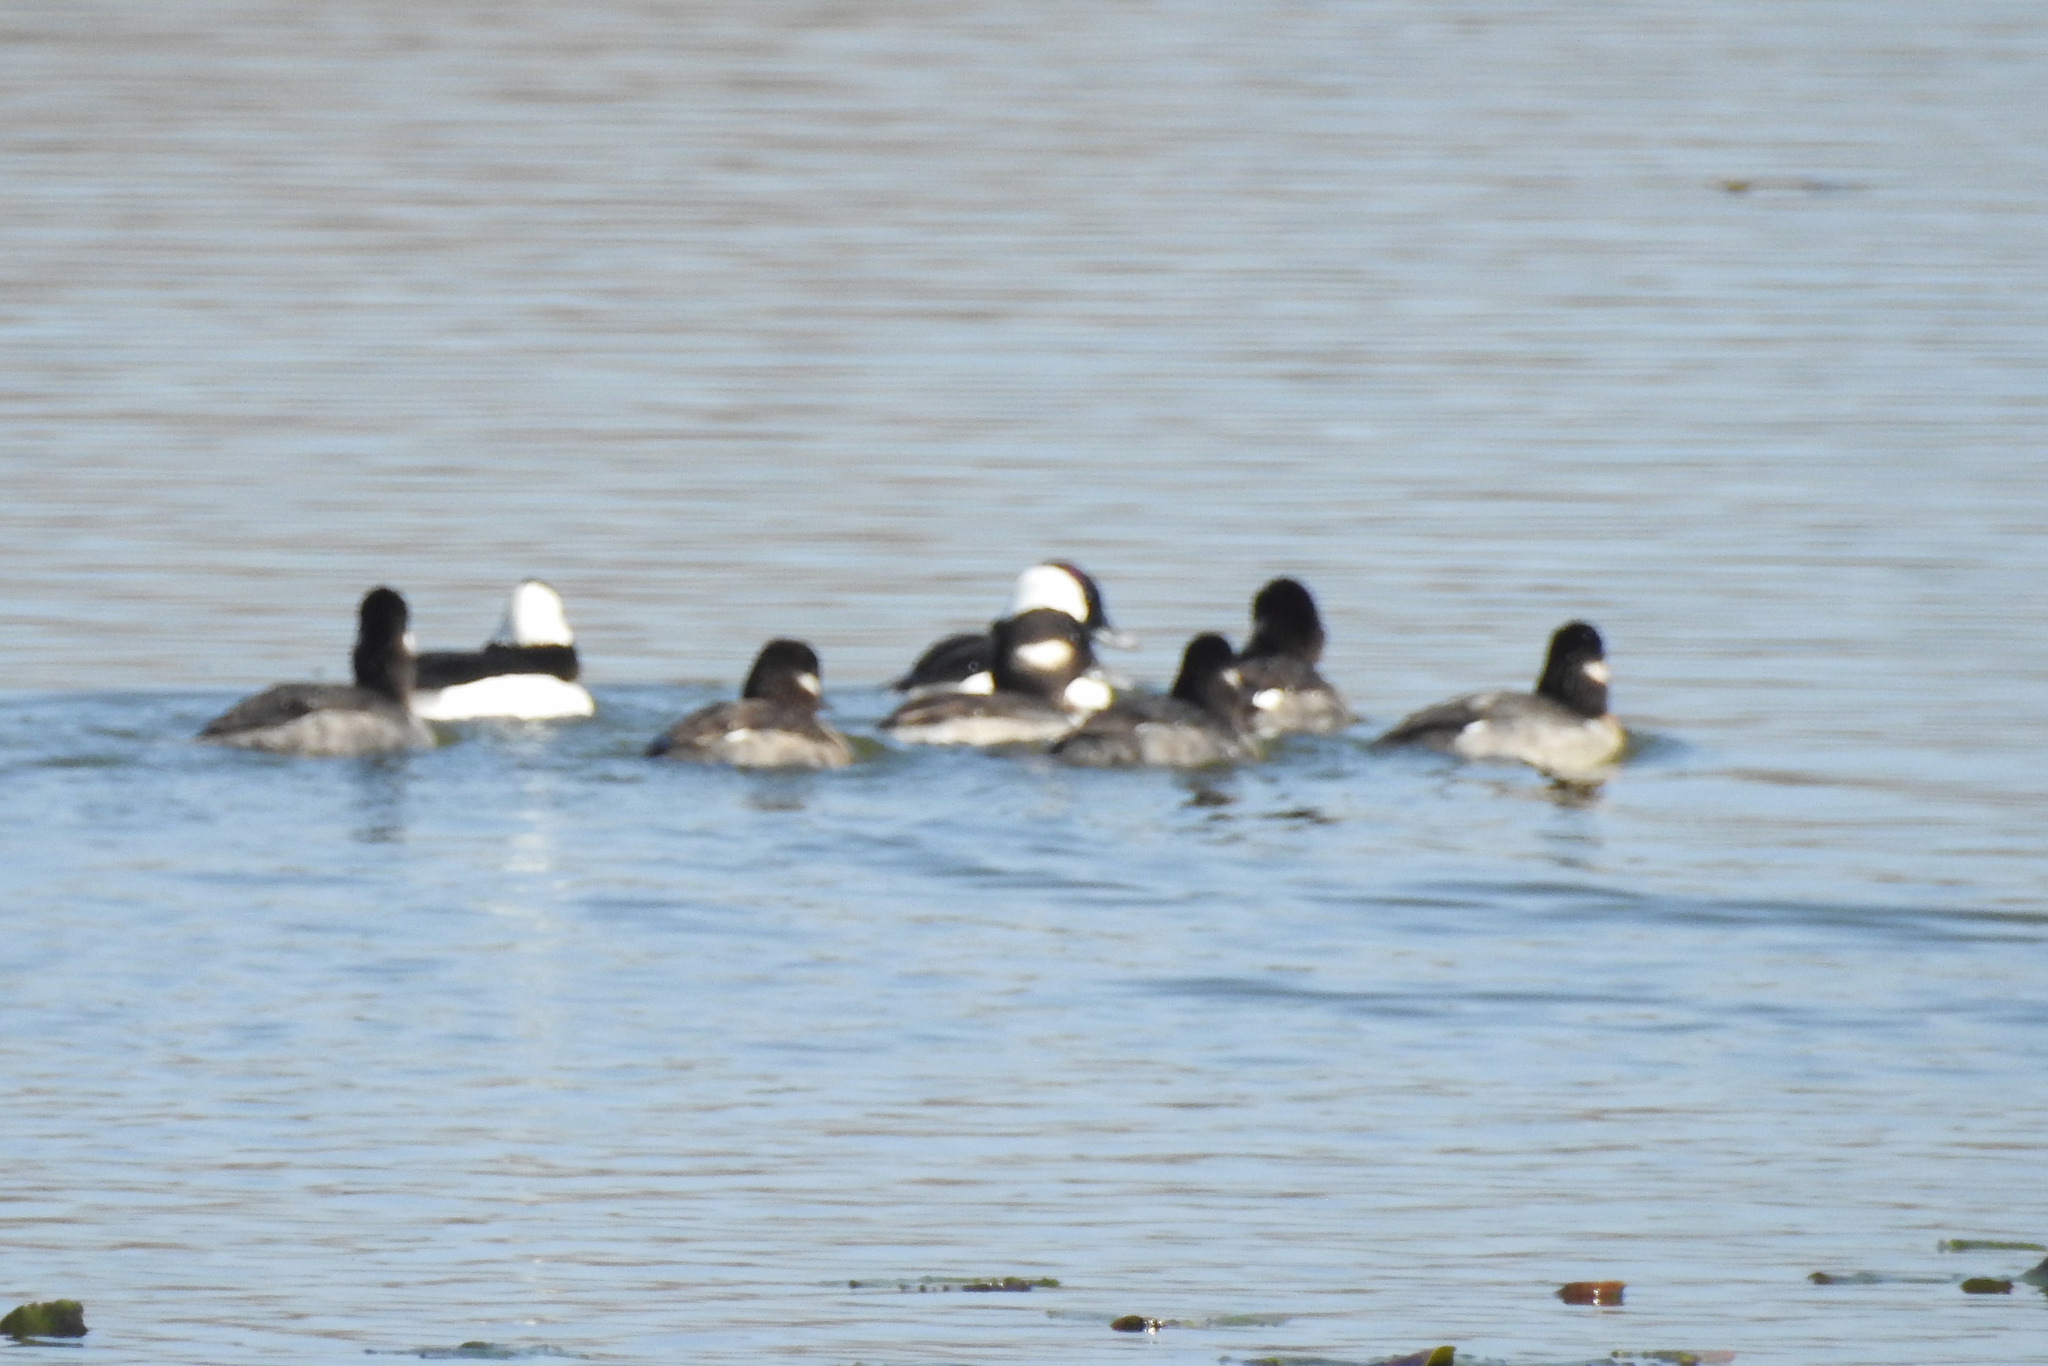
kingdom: Animalia
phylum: Chordata
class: Aves
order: Anseriformes
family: Anatidae
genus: Bucephala
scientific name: Bucephala albeola
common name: Bufflehead
